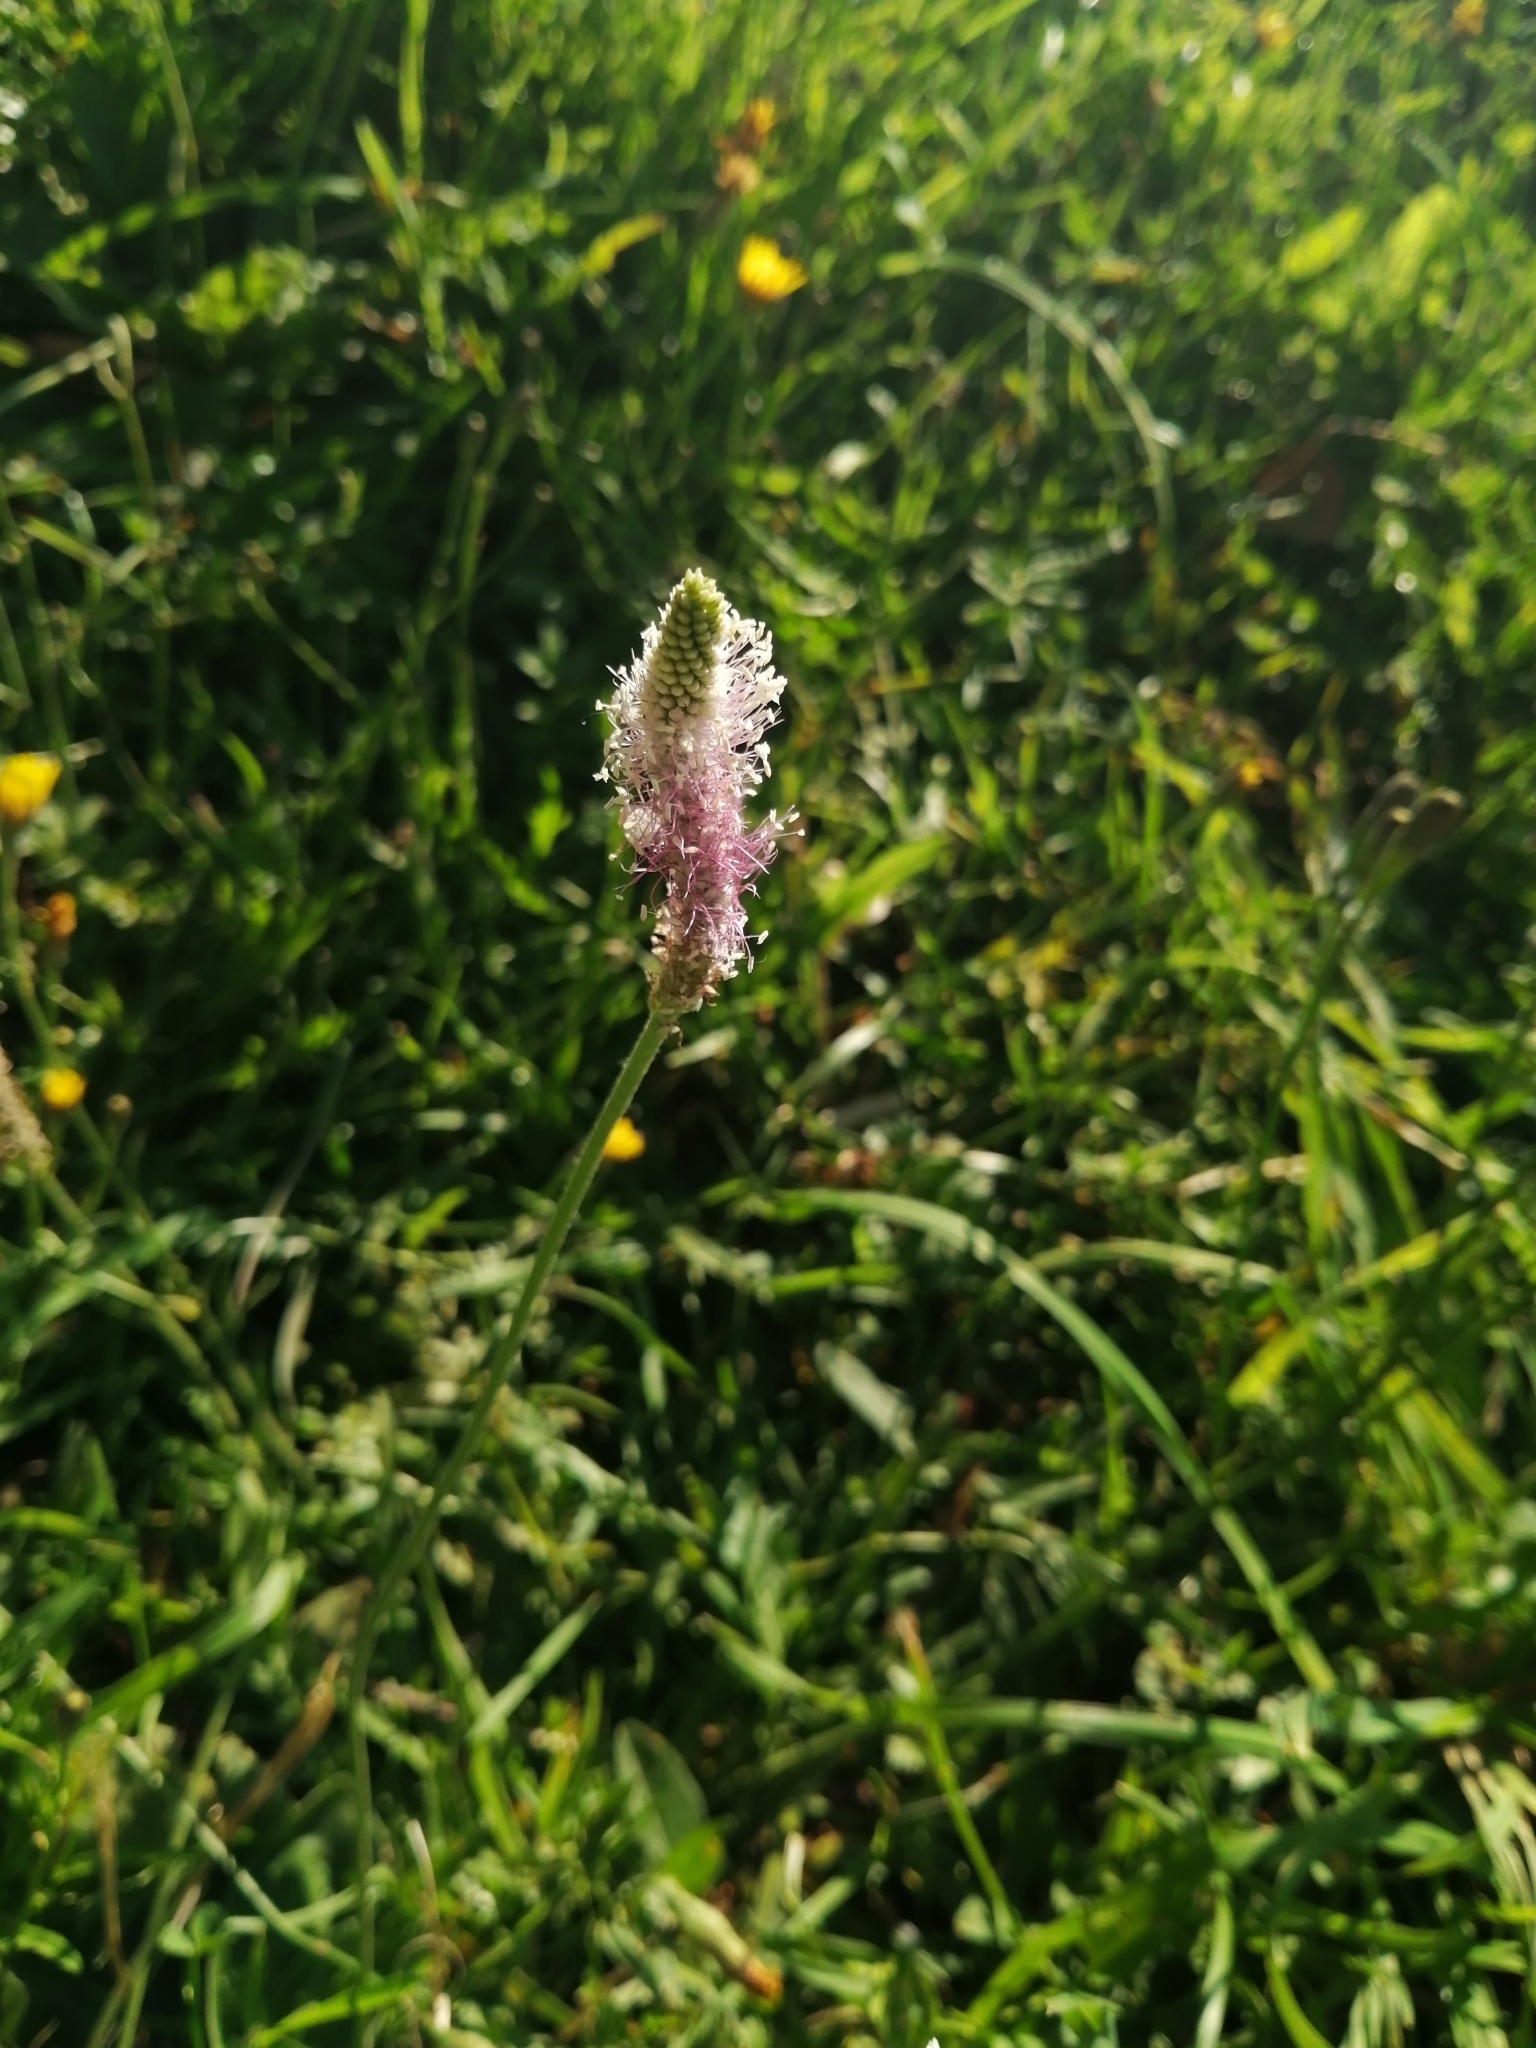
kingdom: Plantae
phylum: Tracheophyta
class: Magnoliopsida
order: Lamiales
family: Plantaginaceae
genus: Plantago
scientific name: Plantago media
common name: Hoary plantain
